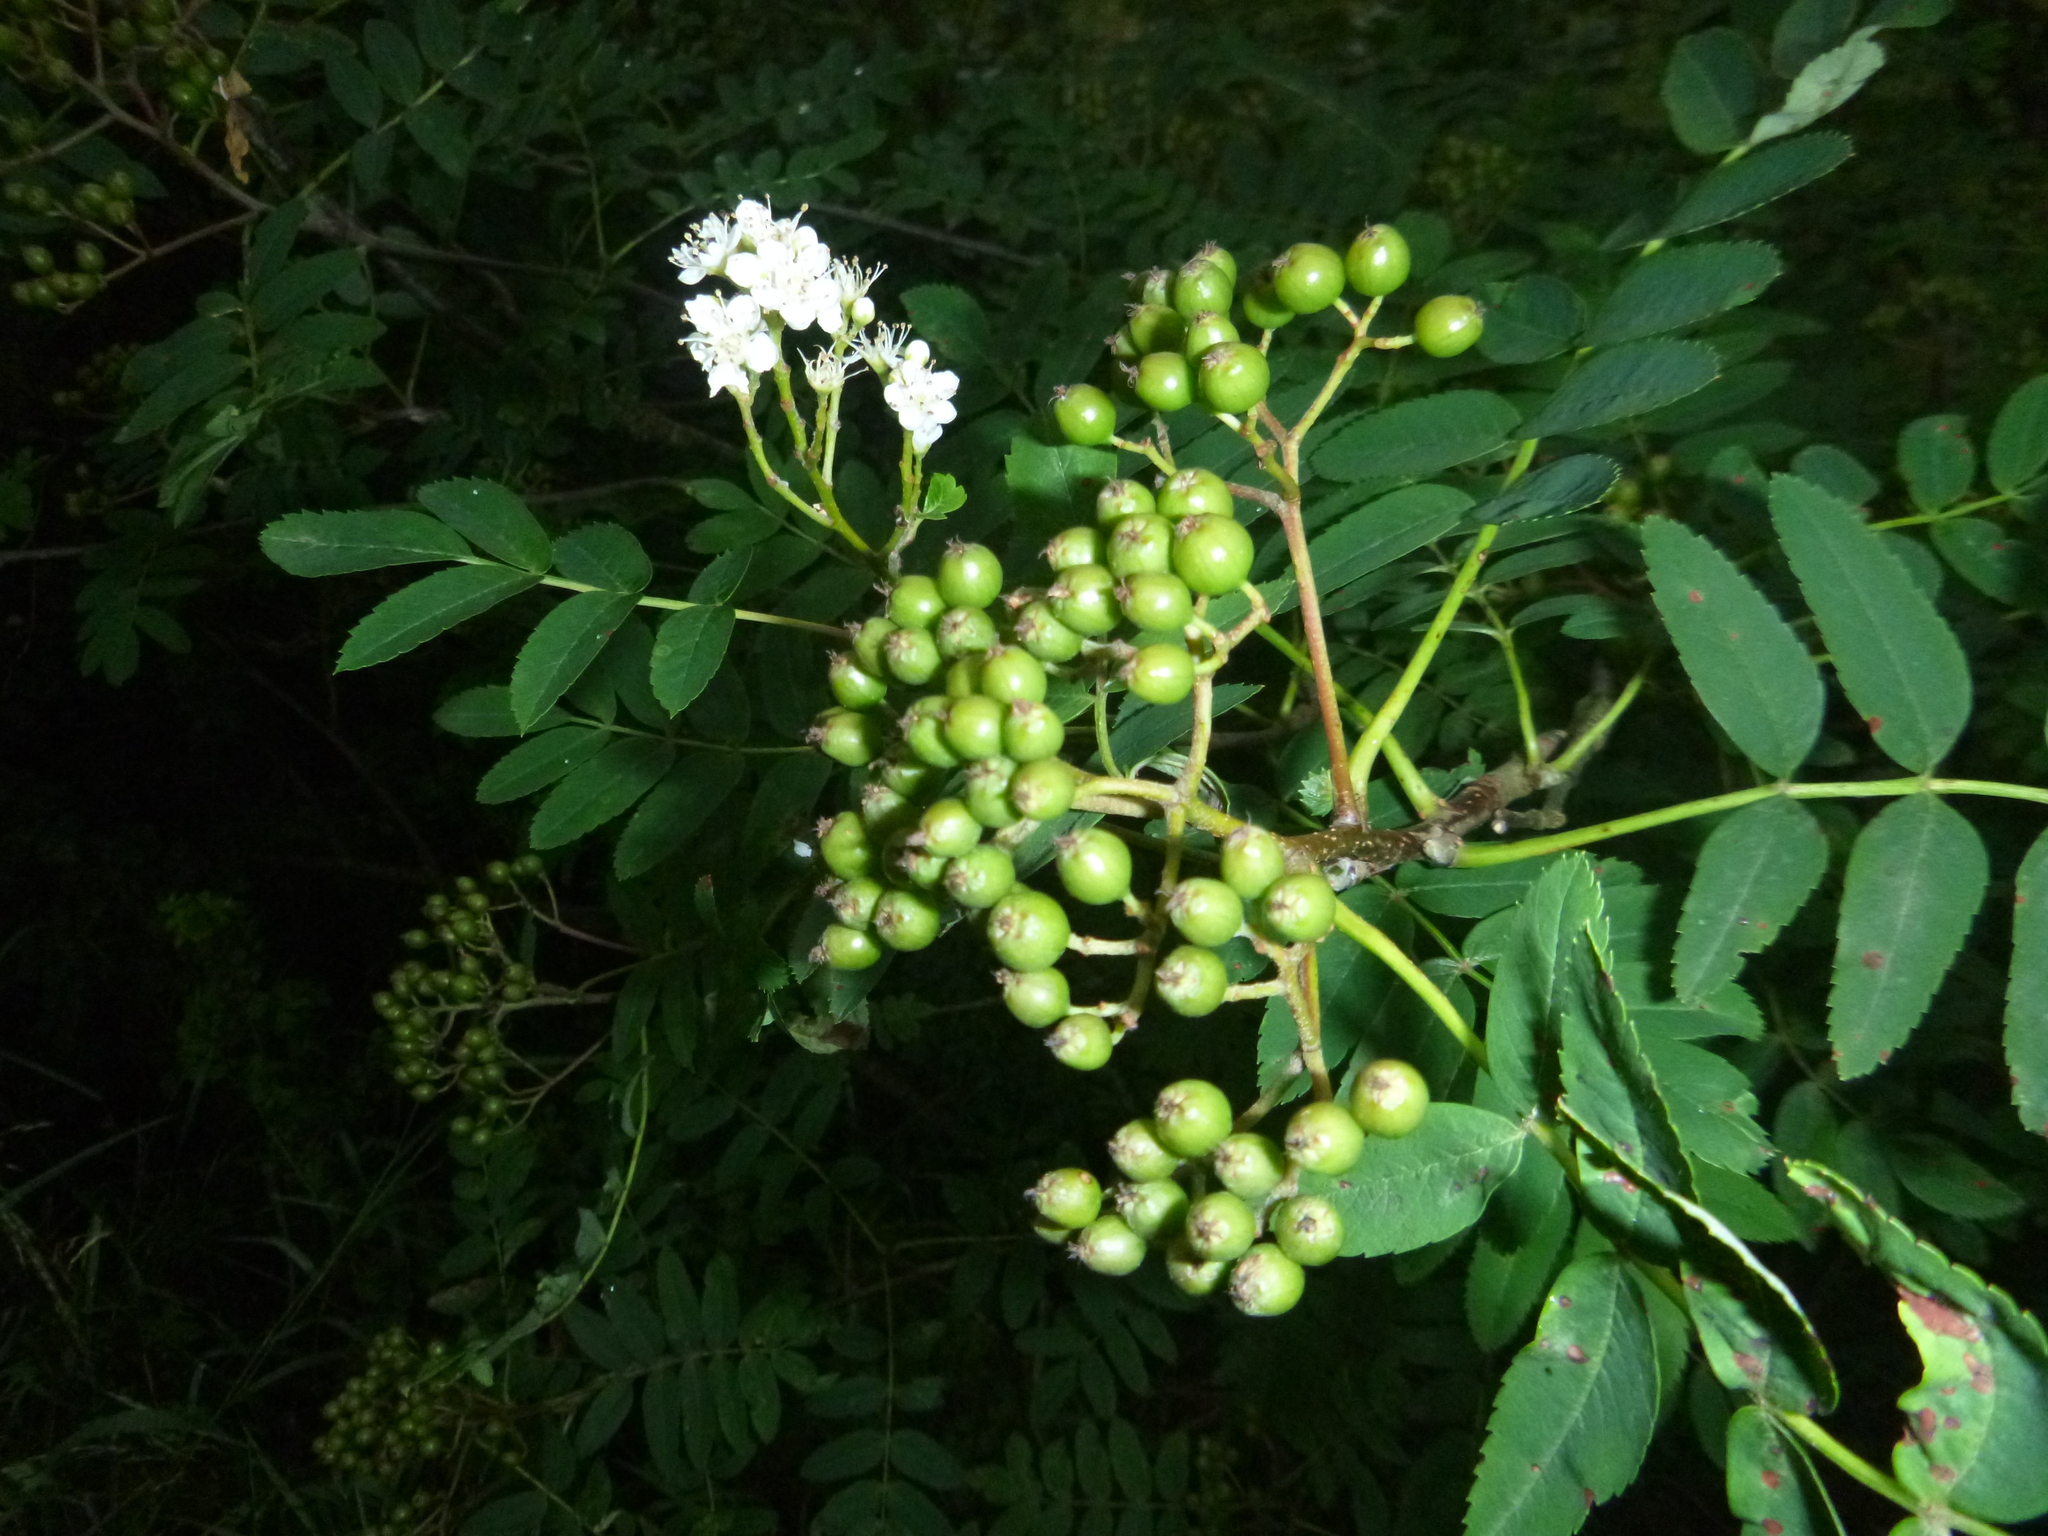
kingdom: Plantae
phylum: Tracheophyta
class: Magnoliopsida
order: Rosales
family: Rosaceae
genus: Sorbus
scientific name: Sorbus aucuparia
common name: Rowan
